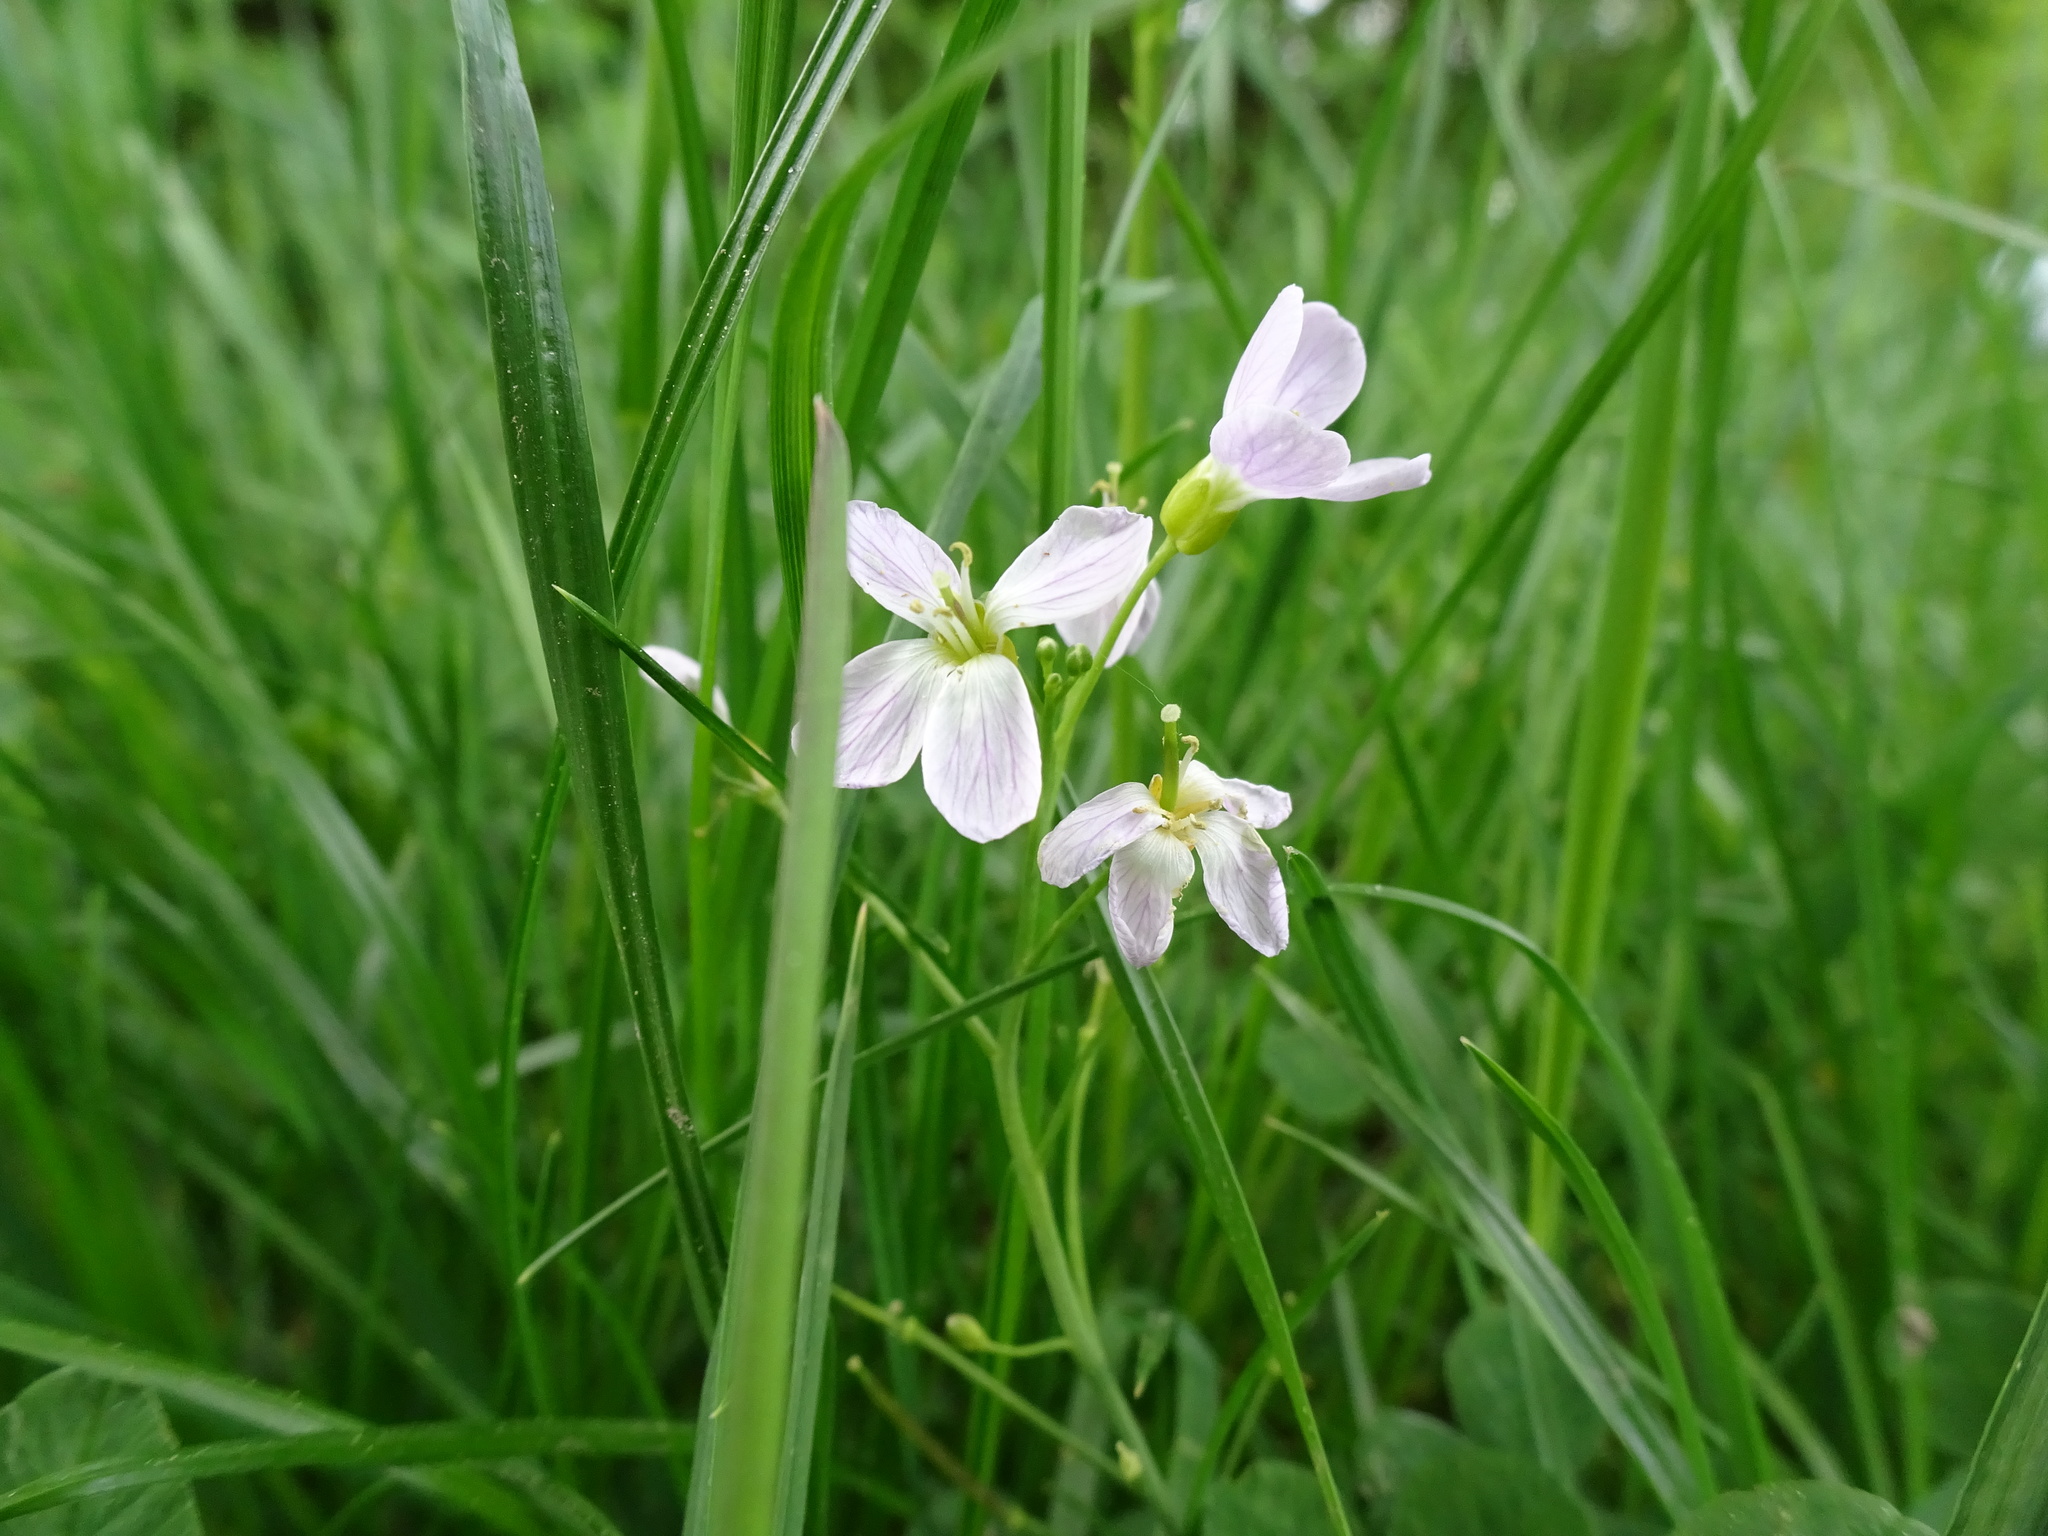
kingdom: Plantae
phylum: Tracheophyta
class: Magnoliopsida
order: Brassicales
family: Brassicaceae
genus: Cardamine
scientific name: Cardamine pratensis
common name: Cuckoo flower
